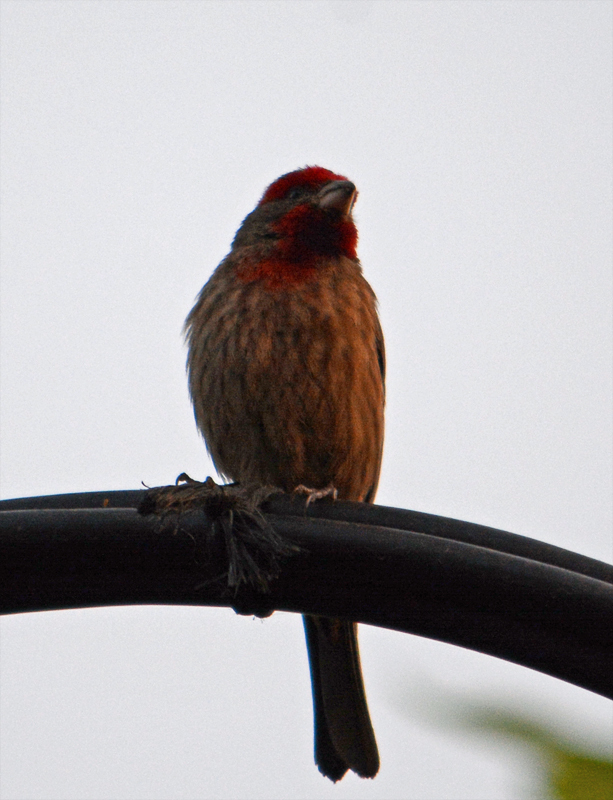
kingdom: Animalia
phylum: Chordata
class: Aves
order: Passeriformes
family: Fringillidae
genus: Haemorhous
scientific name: Haemorhous mexicanus
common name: House finch
